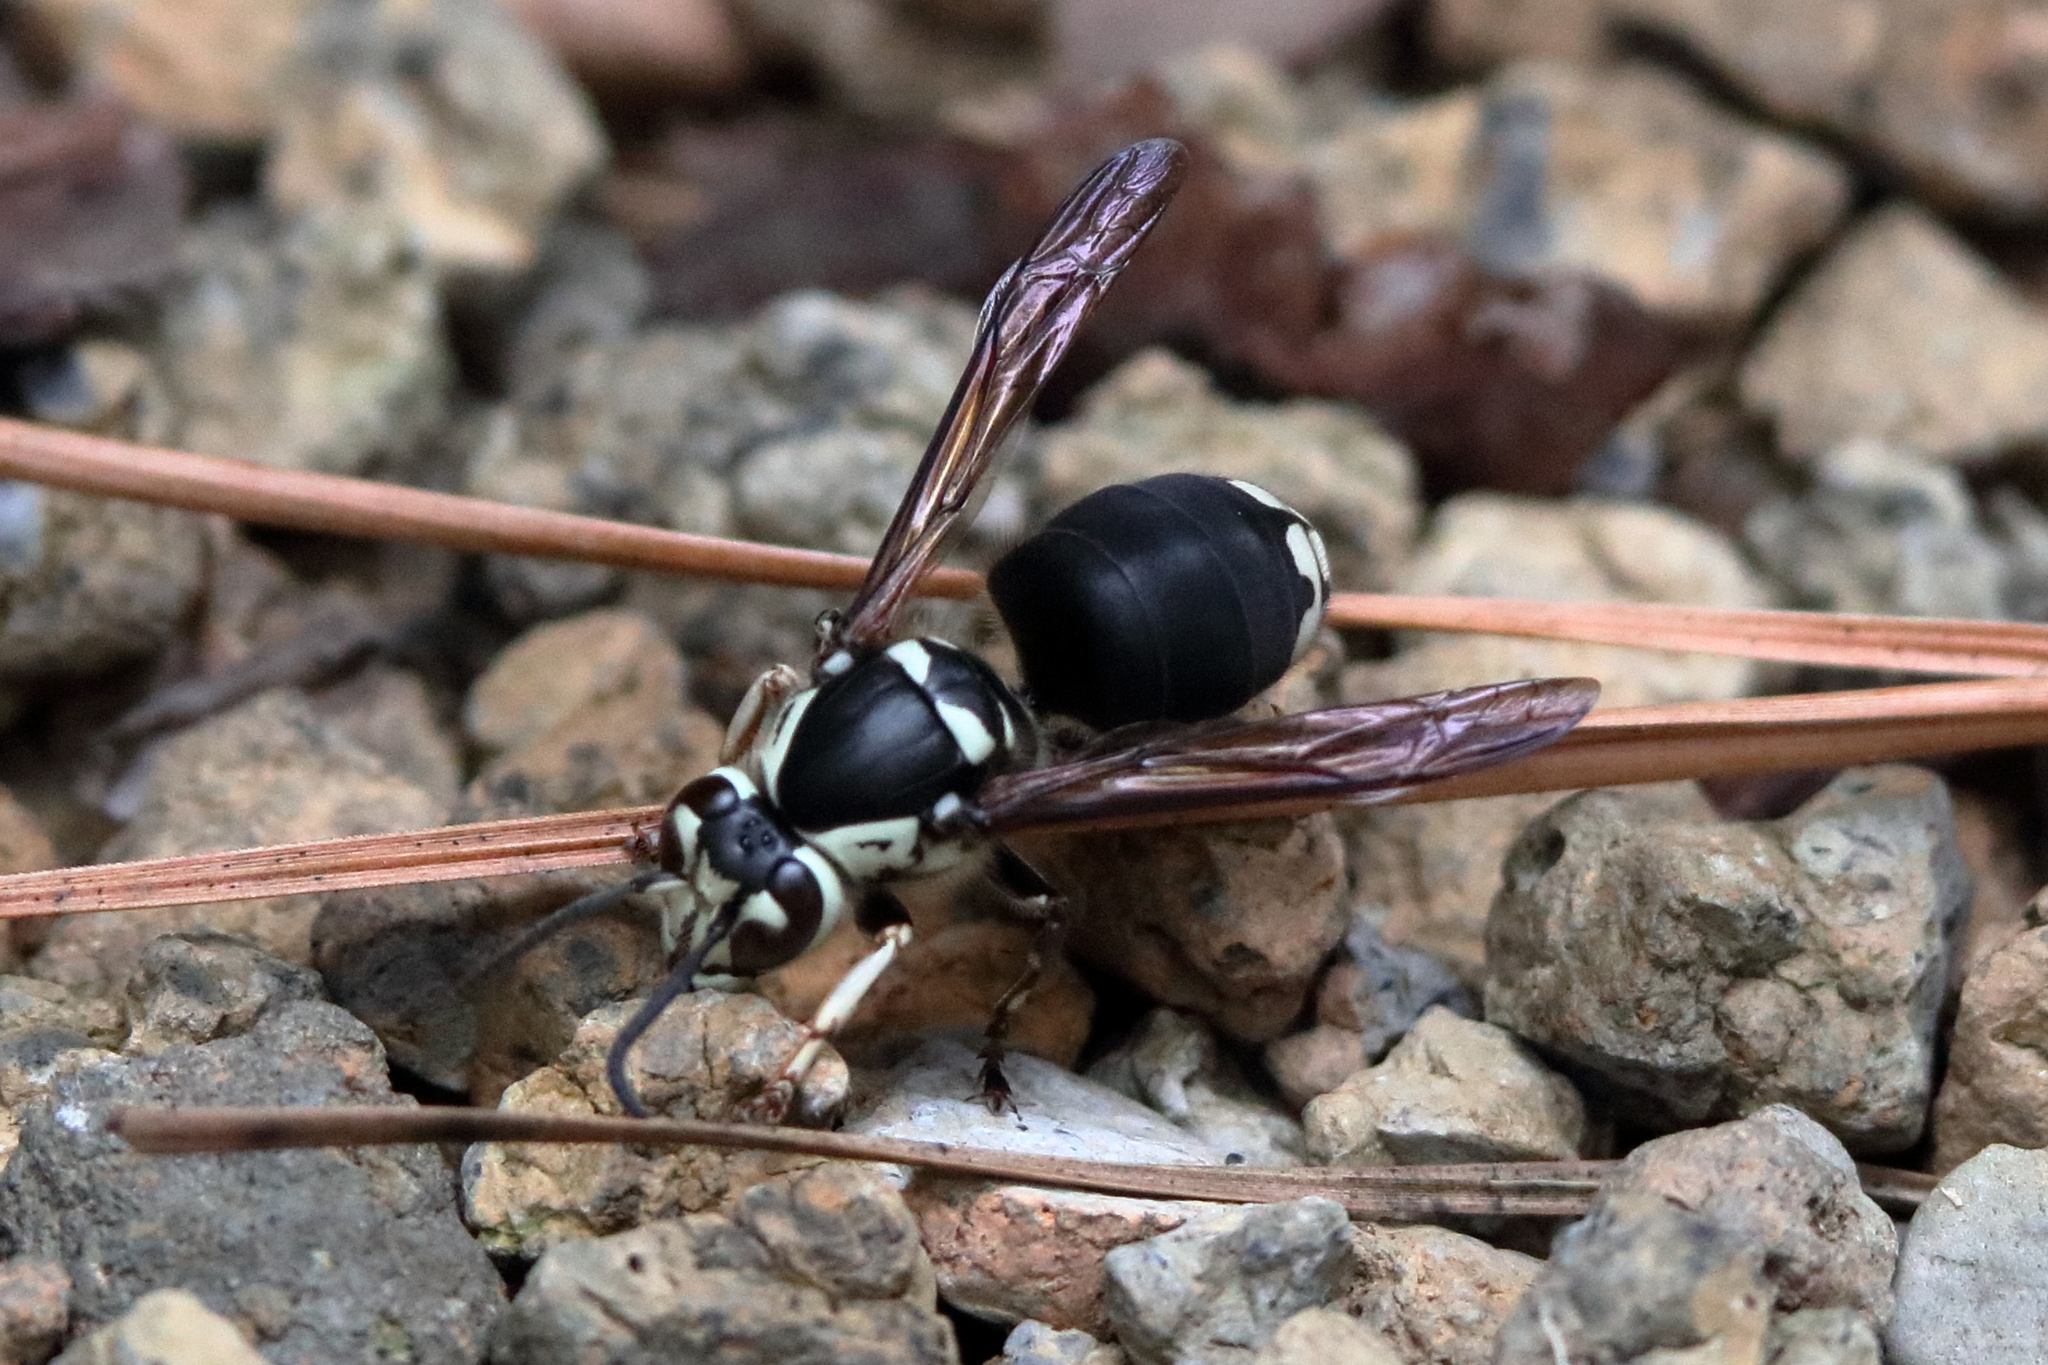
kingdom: Animalia
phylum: Arthropoda
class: Insecta
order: Hymenoptera
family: Vespidae
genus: Dolichovespula
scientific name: Dolichovespula maculata
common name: Bald-faced hornet
